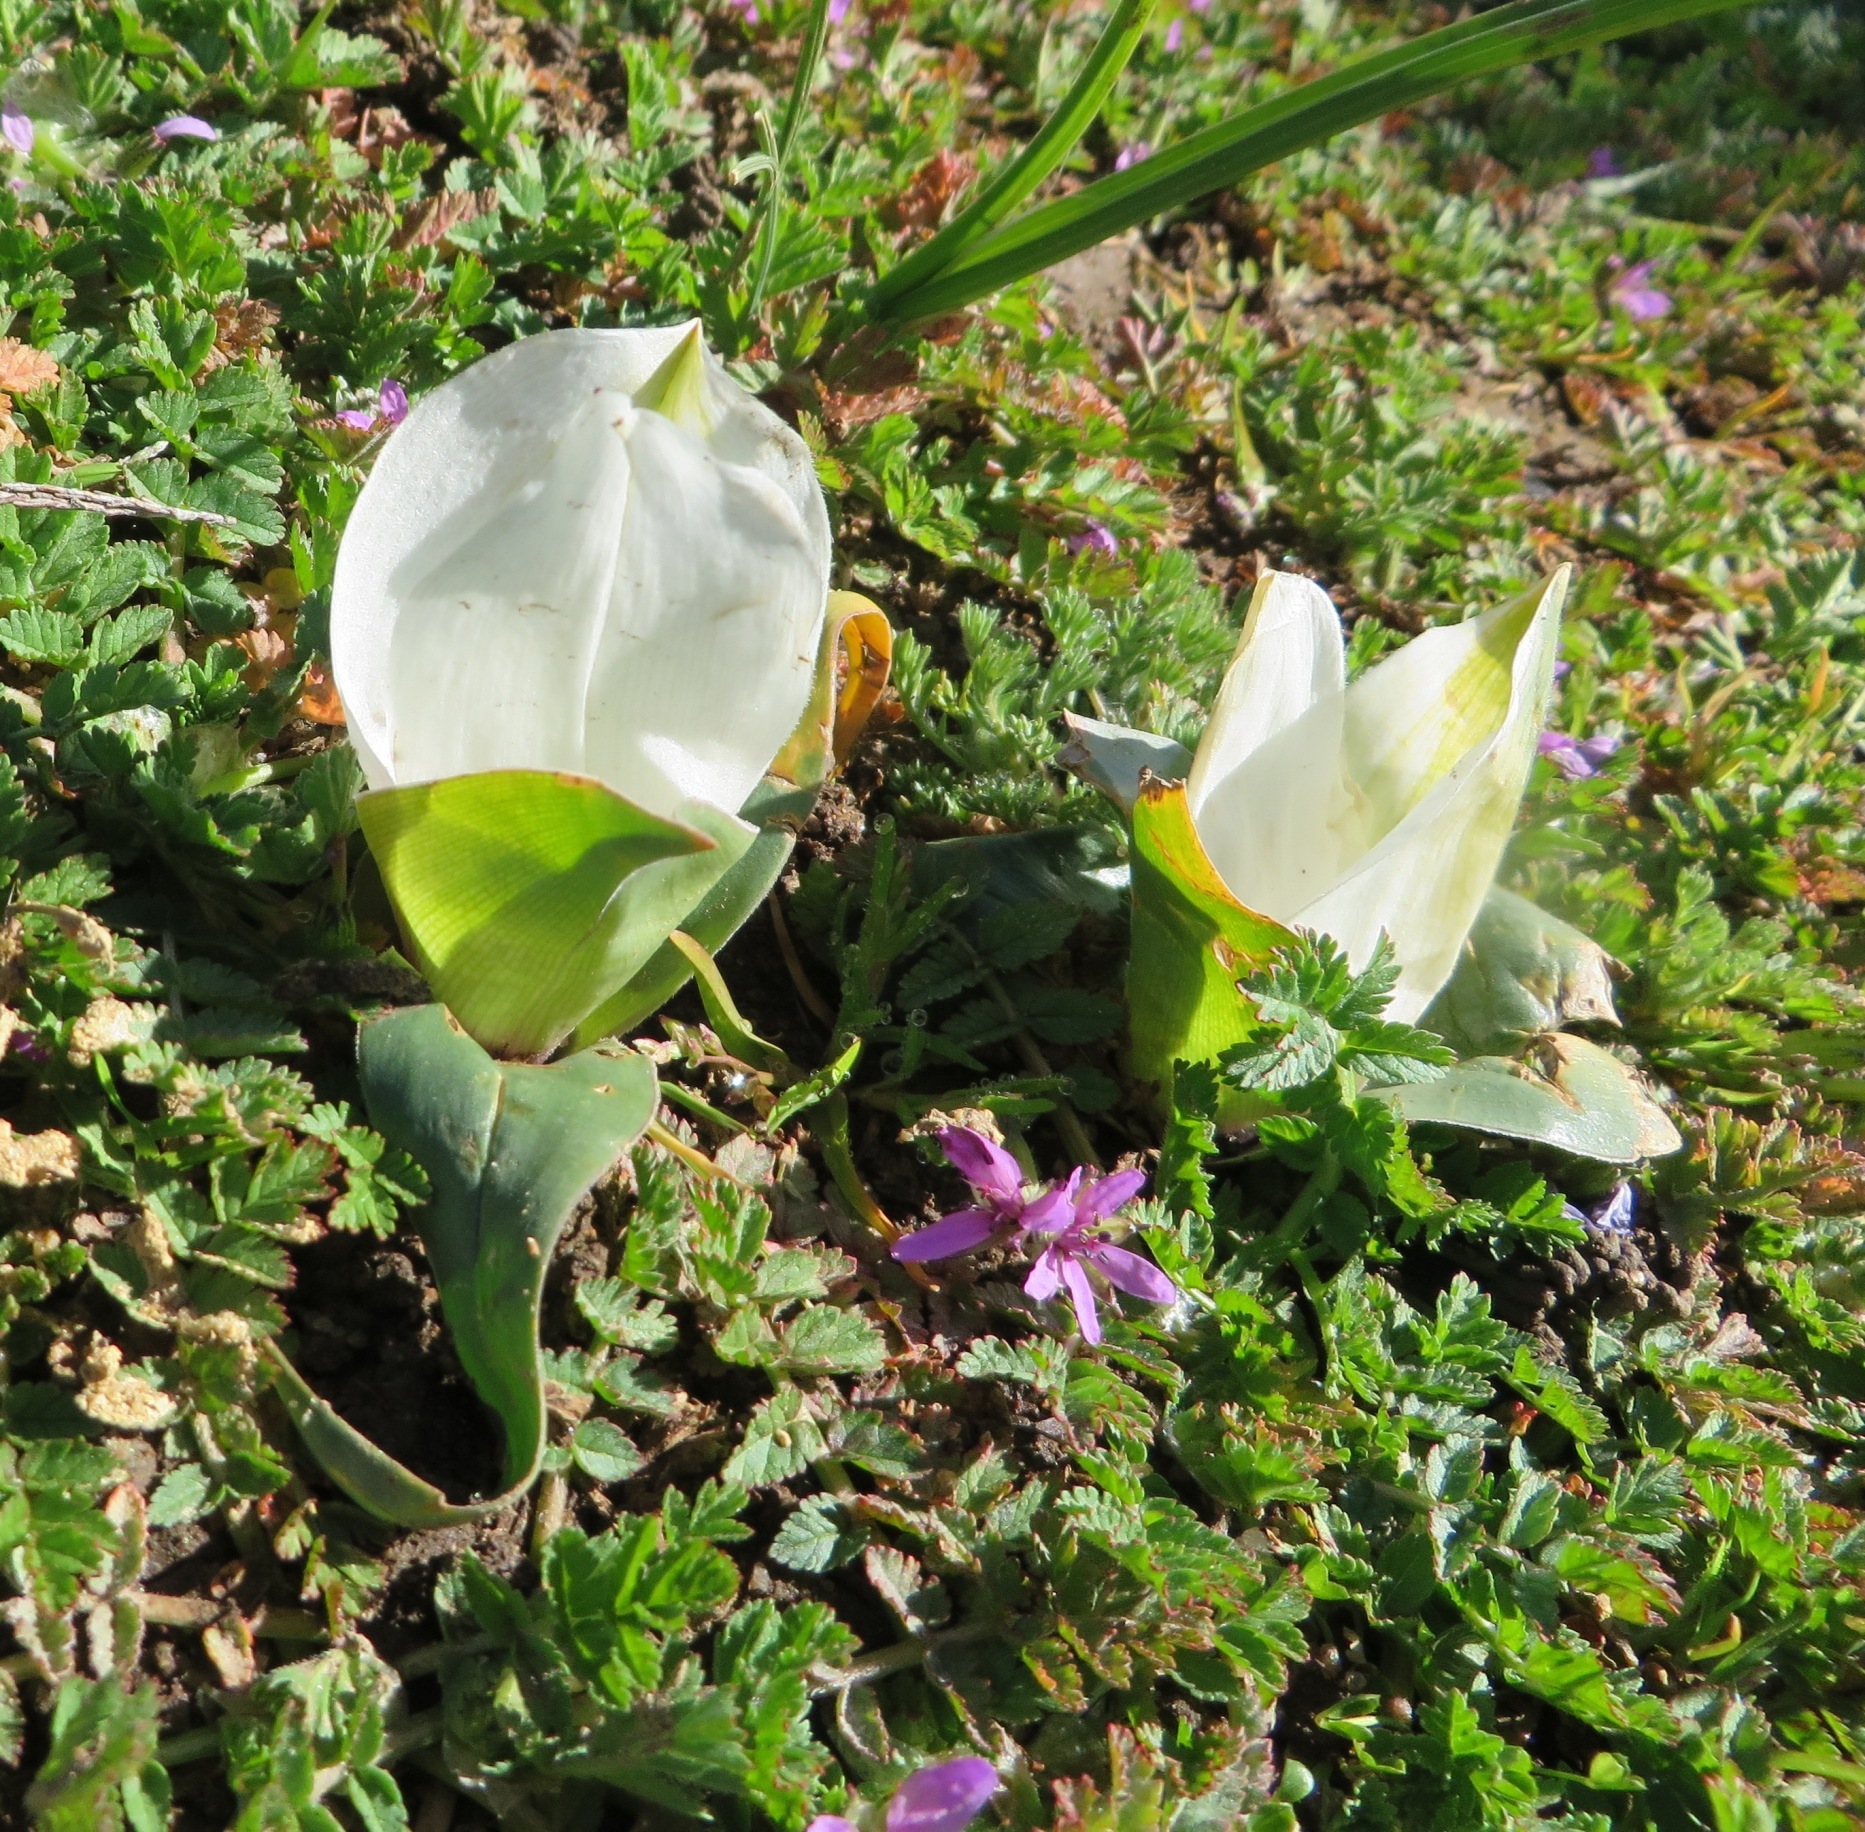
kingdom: Plantae
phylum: Tracheophyta
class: Liliopsida
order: Liliales
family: Colchicaceae
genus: Colchicum
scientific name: Colchicum capense
